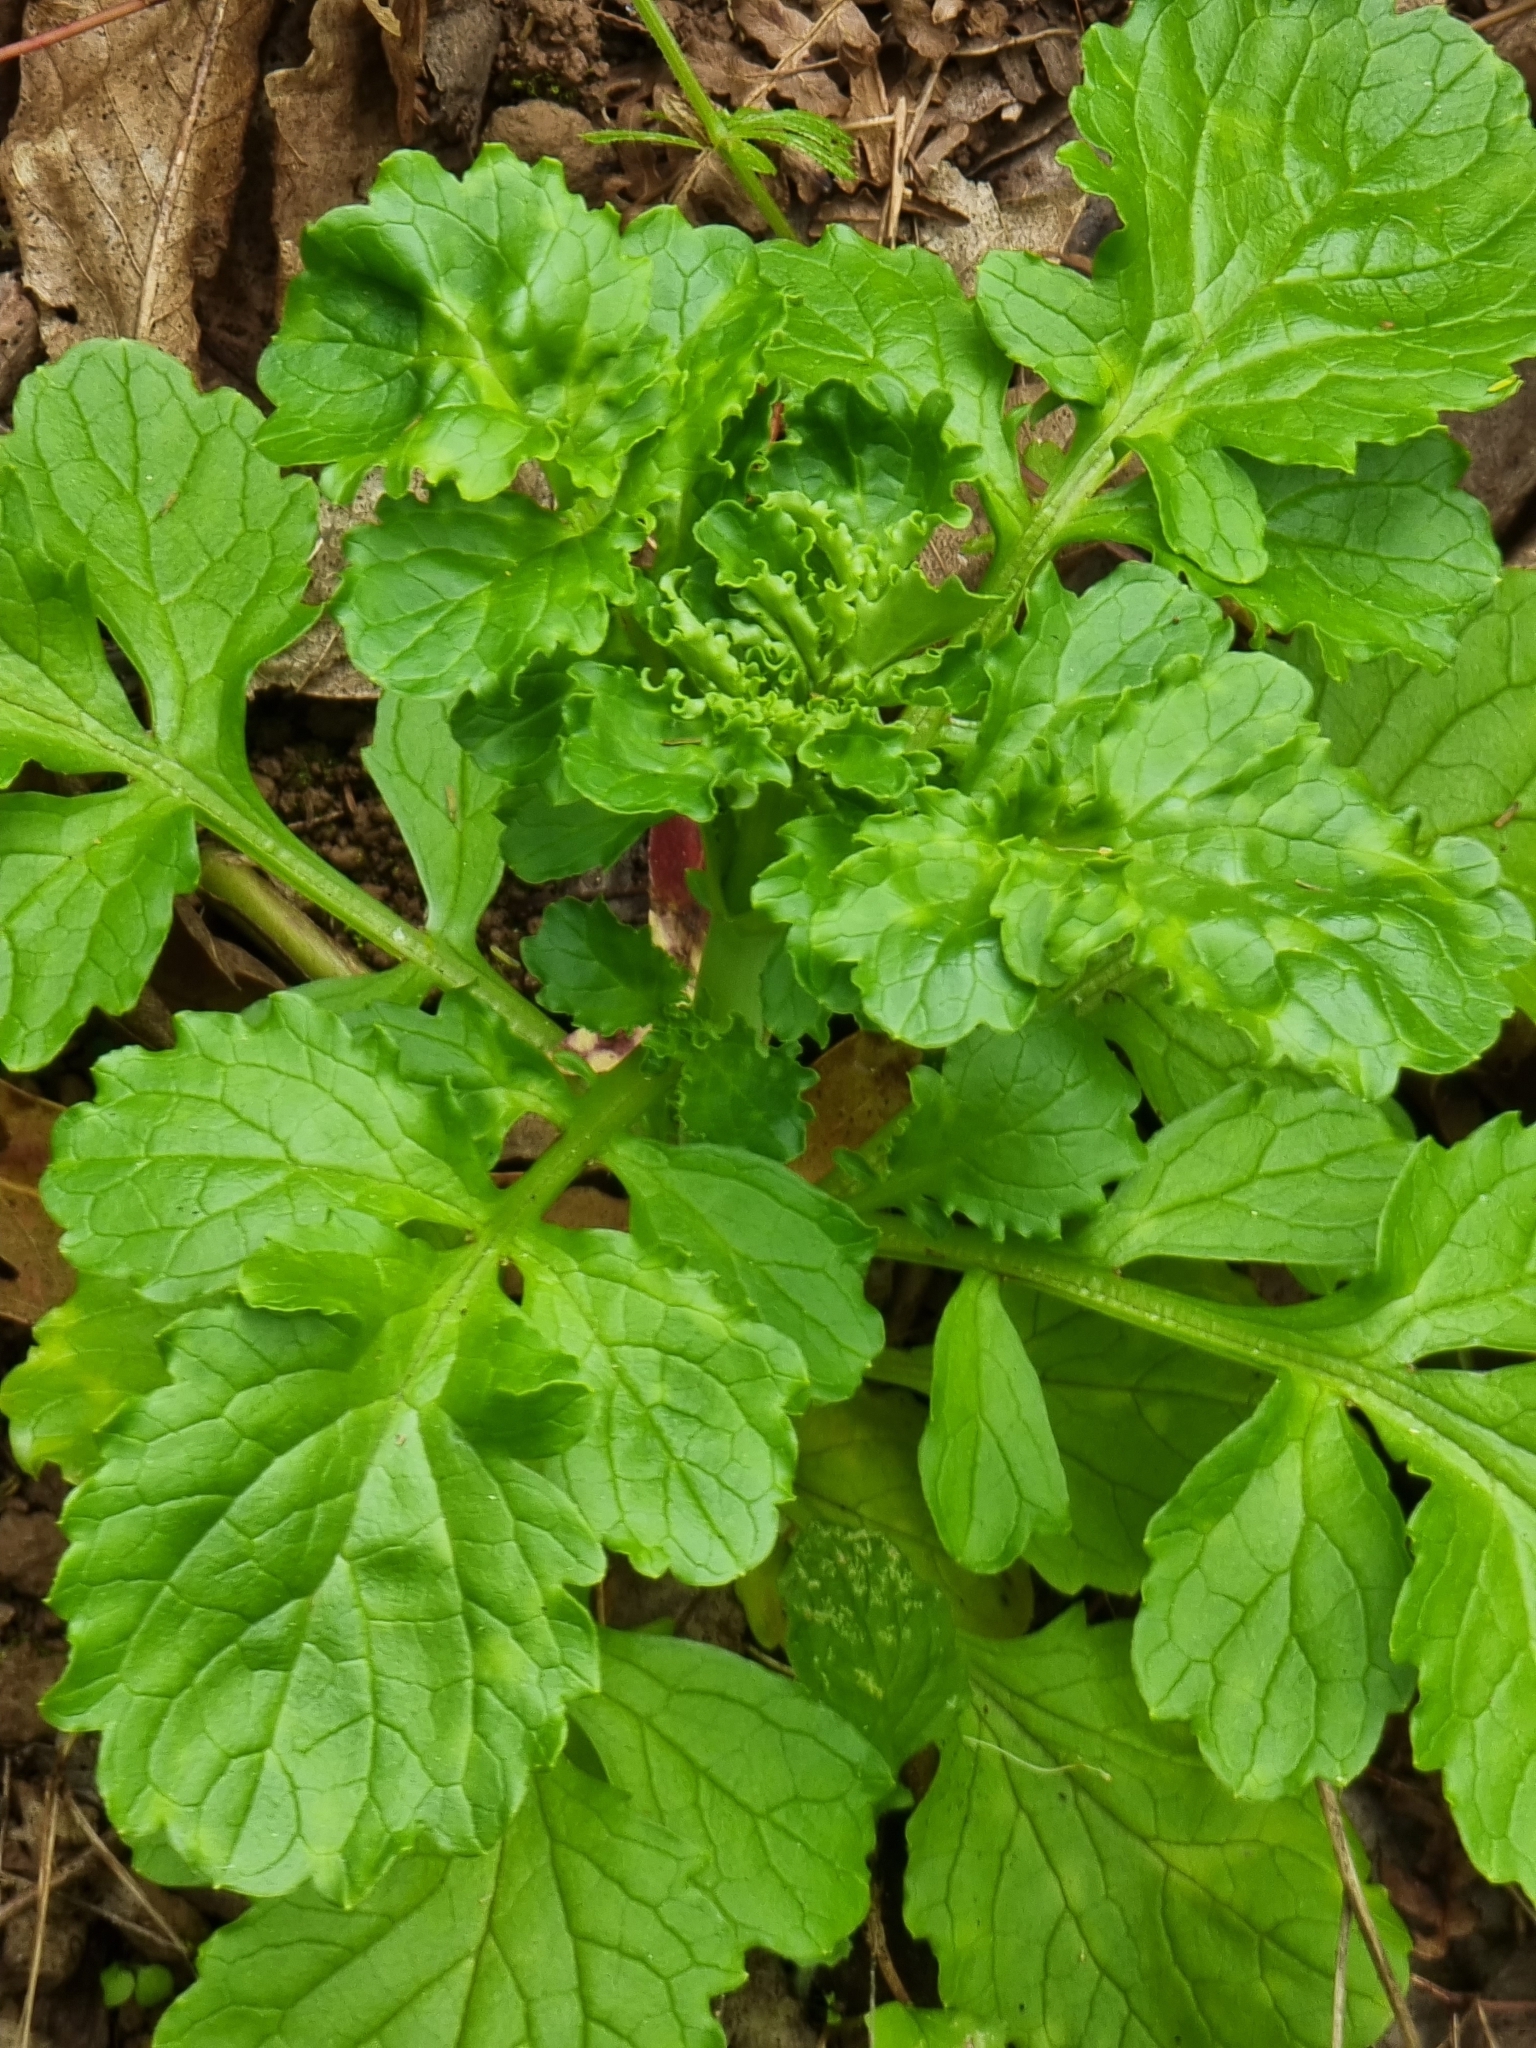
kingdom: Plantae
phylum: Tracheophyta
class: Magnoliopsida
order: Dipsacales
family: Caprifoliaceae
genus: Centranthus
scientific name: Centranthus calcitrapae
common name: Annual valerian
